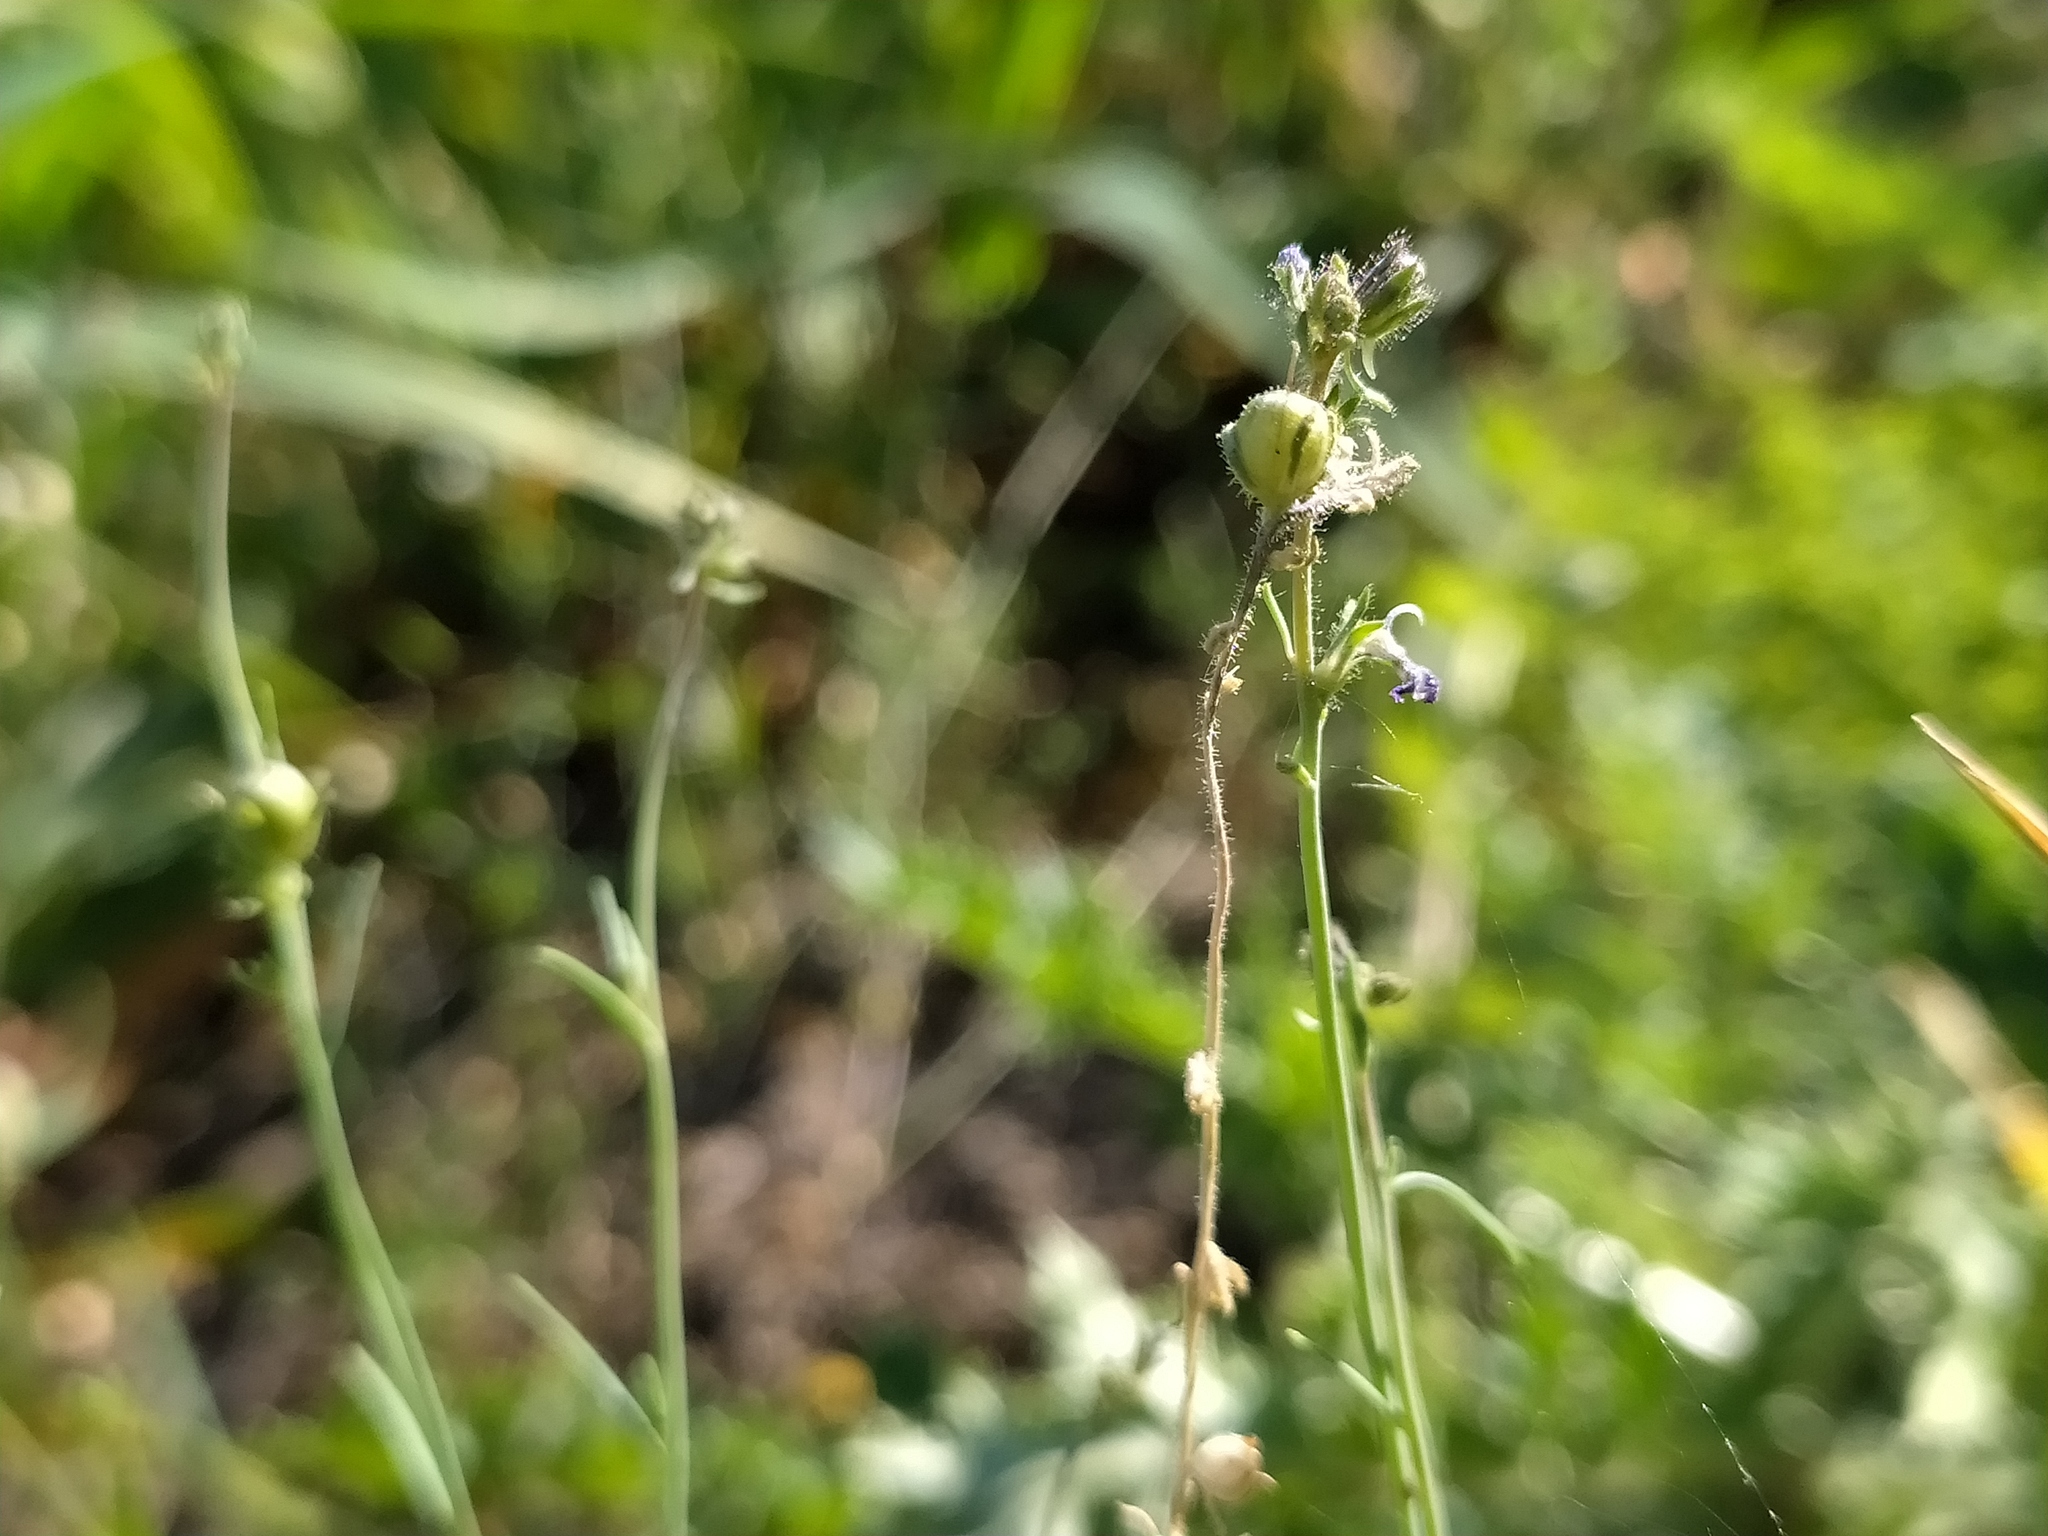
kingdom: Plantae
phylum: Tracheophyta
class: Magnoliopsida
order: Lamiales
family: Plantaginaceae
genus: Linaria
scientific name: Linaria arvensis
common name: Corn toadflax
